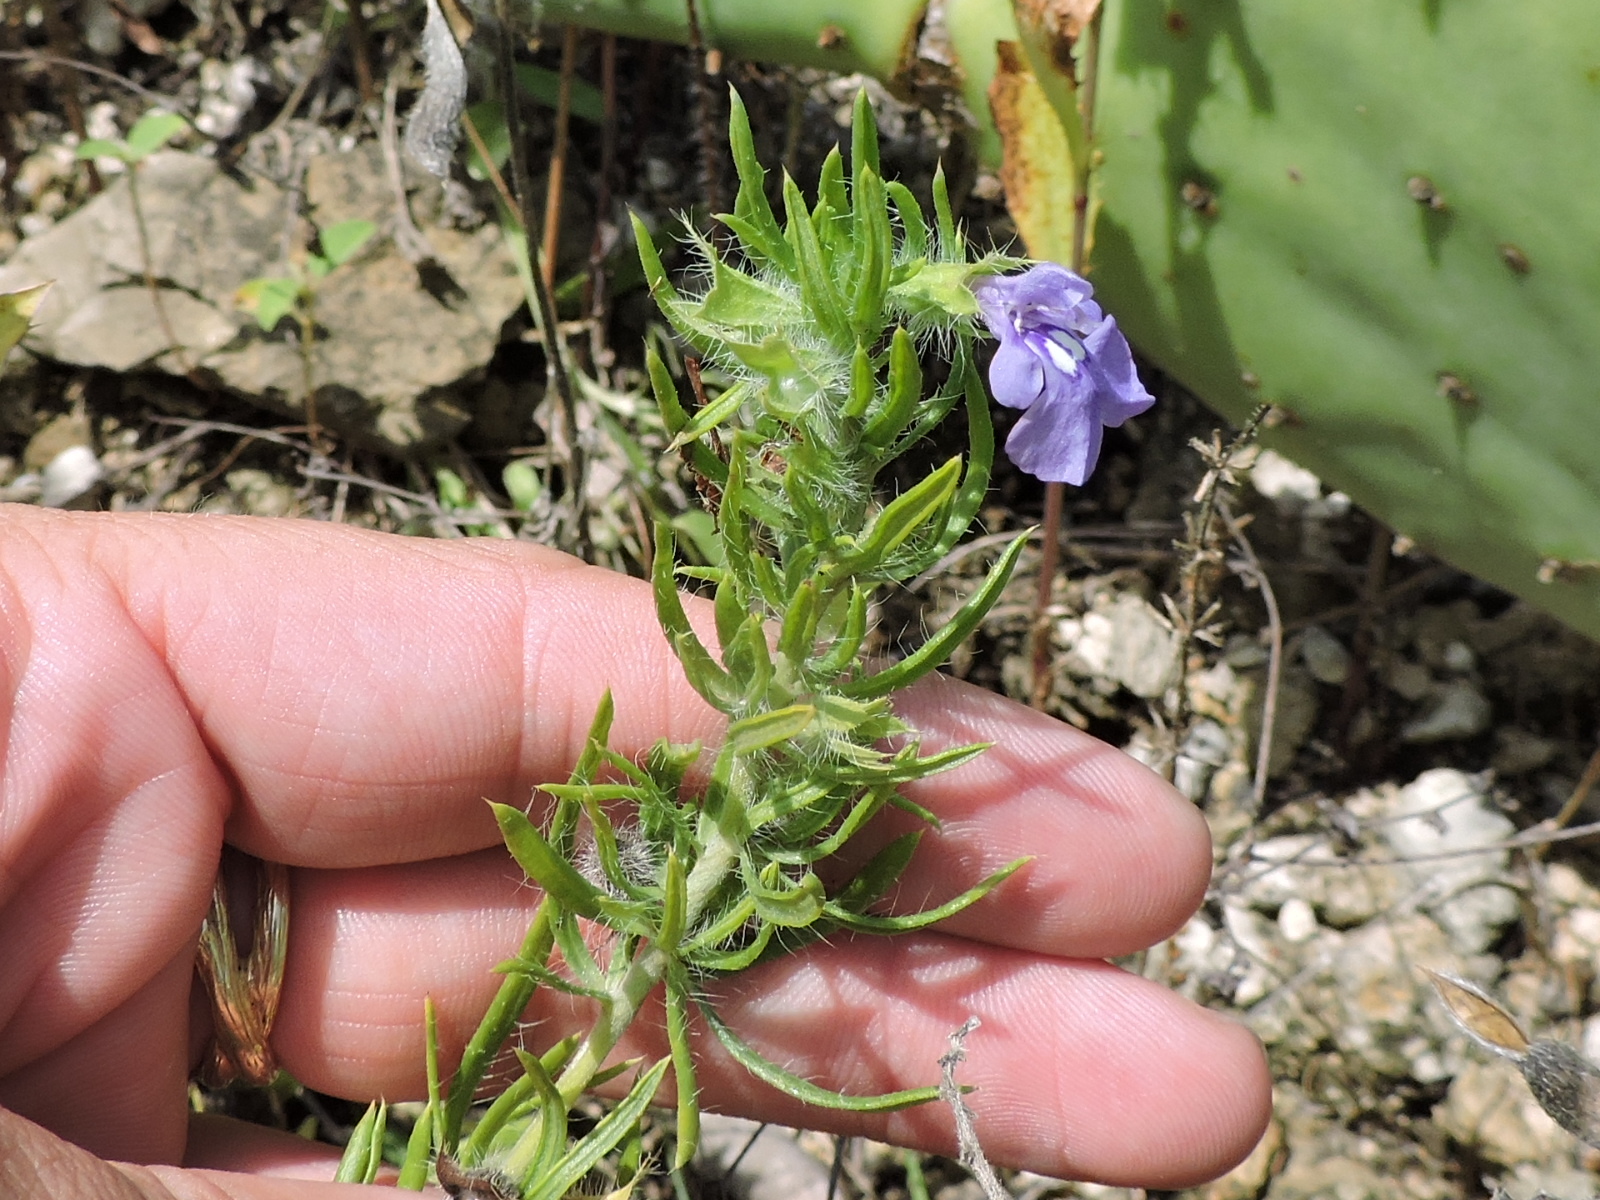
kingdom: Plantae
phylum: Tracheophyta
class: Magnoliopsida
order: Lamiales
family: Lamiaceae
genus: Salvia
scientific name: Salvia texana
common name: Texas sage
